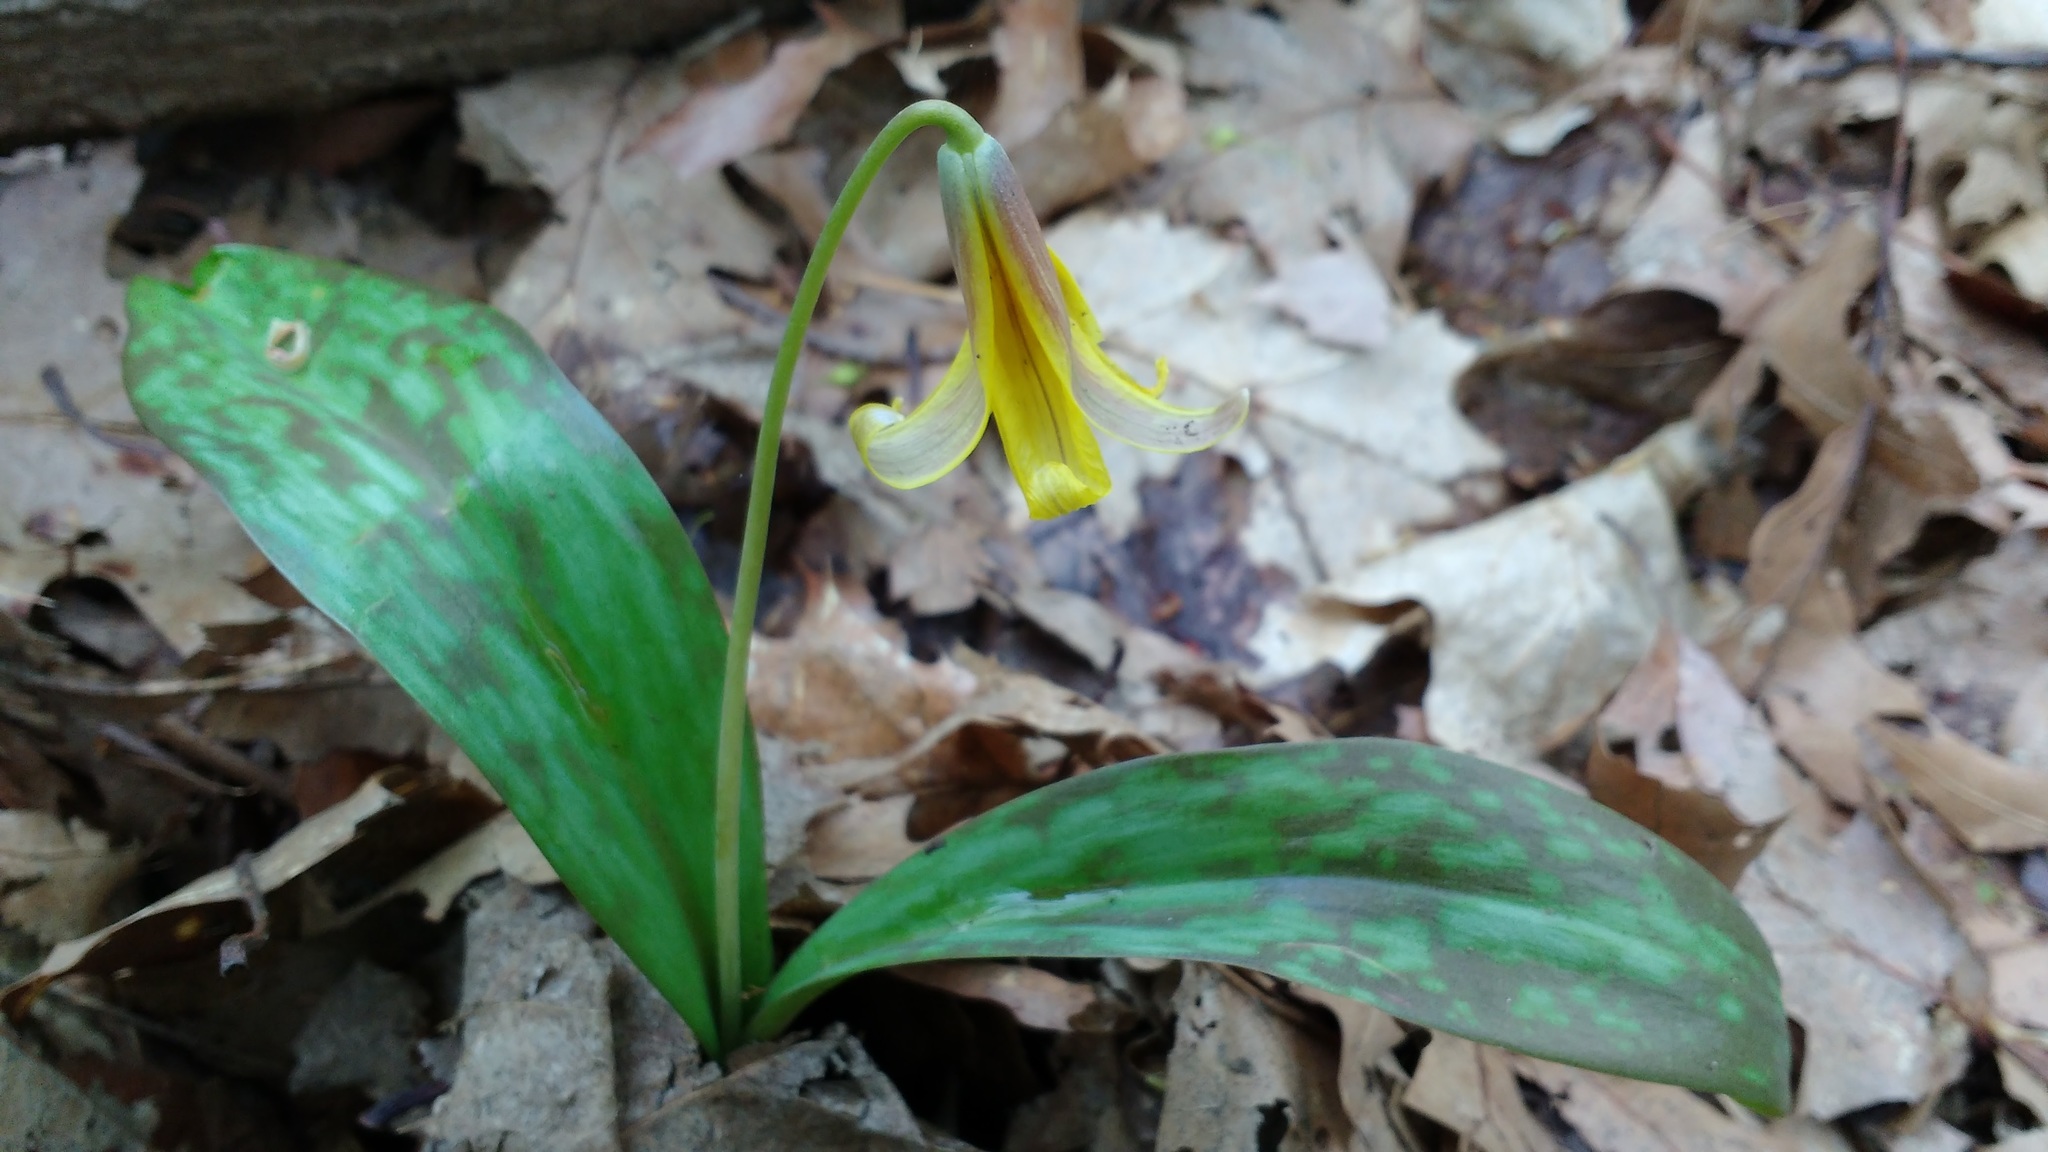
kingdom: Plantae
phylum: Tracheophyta
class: Liliopsida
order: Liliales
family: Liliaceae
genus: Erythronium
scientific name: Erythronium americanum
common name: Yellow adder's-tongue
